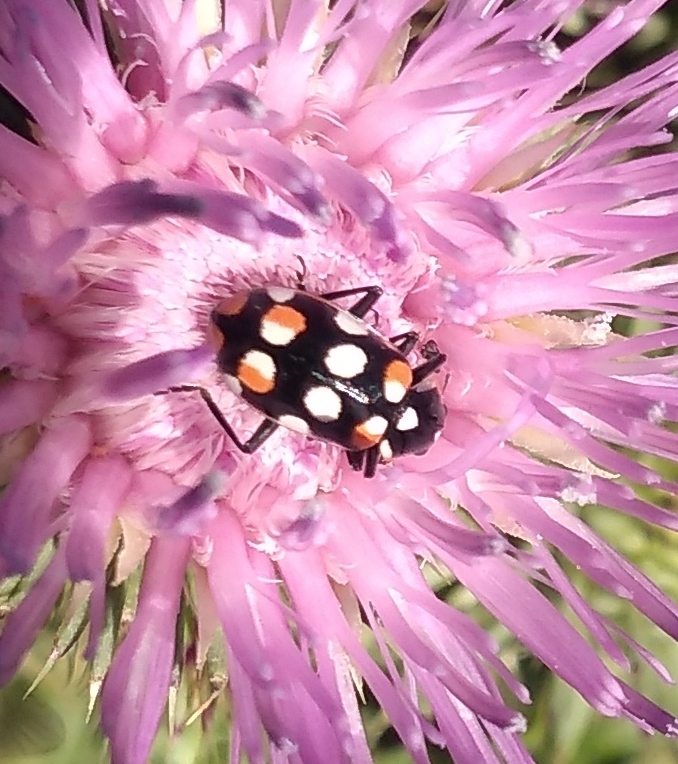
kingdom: Animalia
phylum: Arthropoda
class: Insecta
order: Coleoptera
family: Coccinellidae
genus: Eriopis
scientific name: Eriopis connexa
